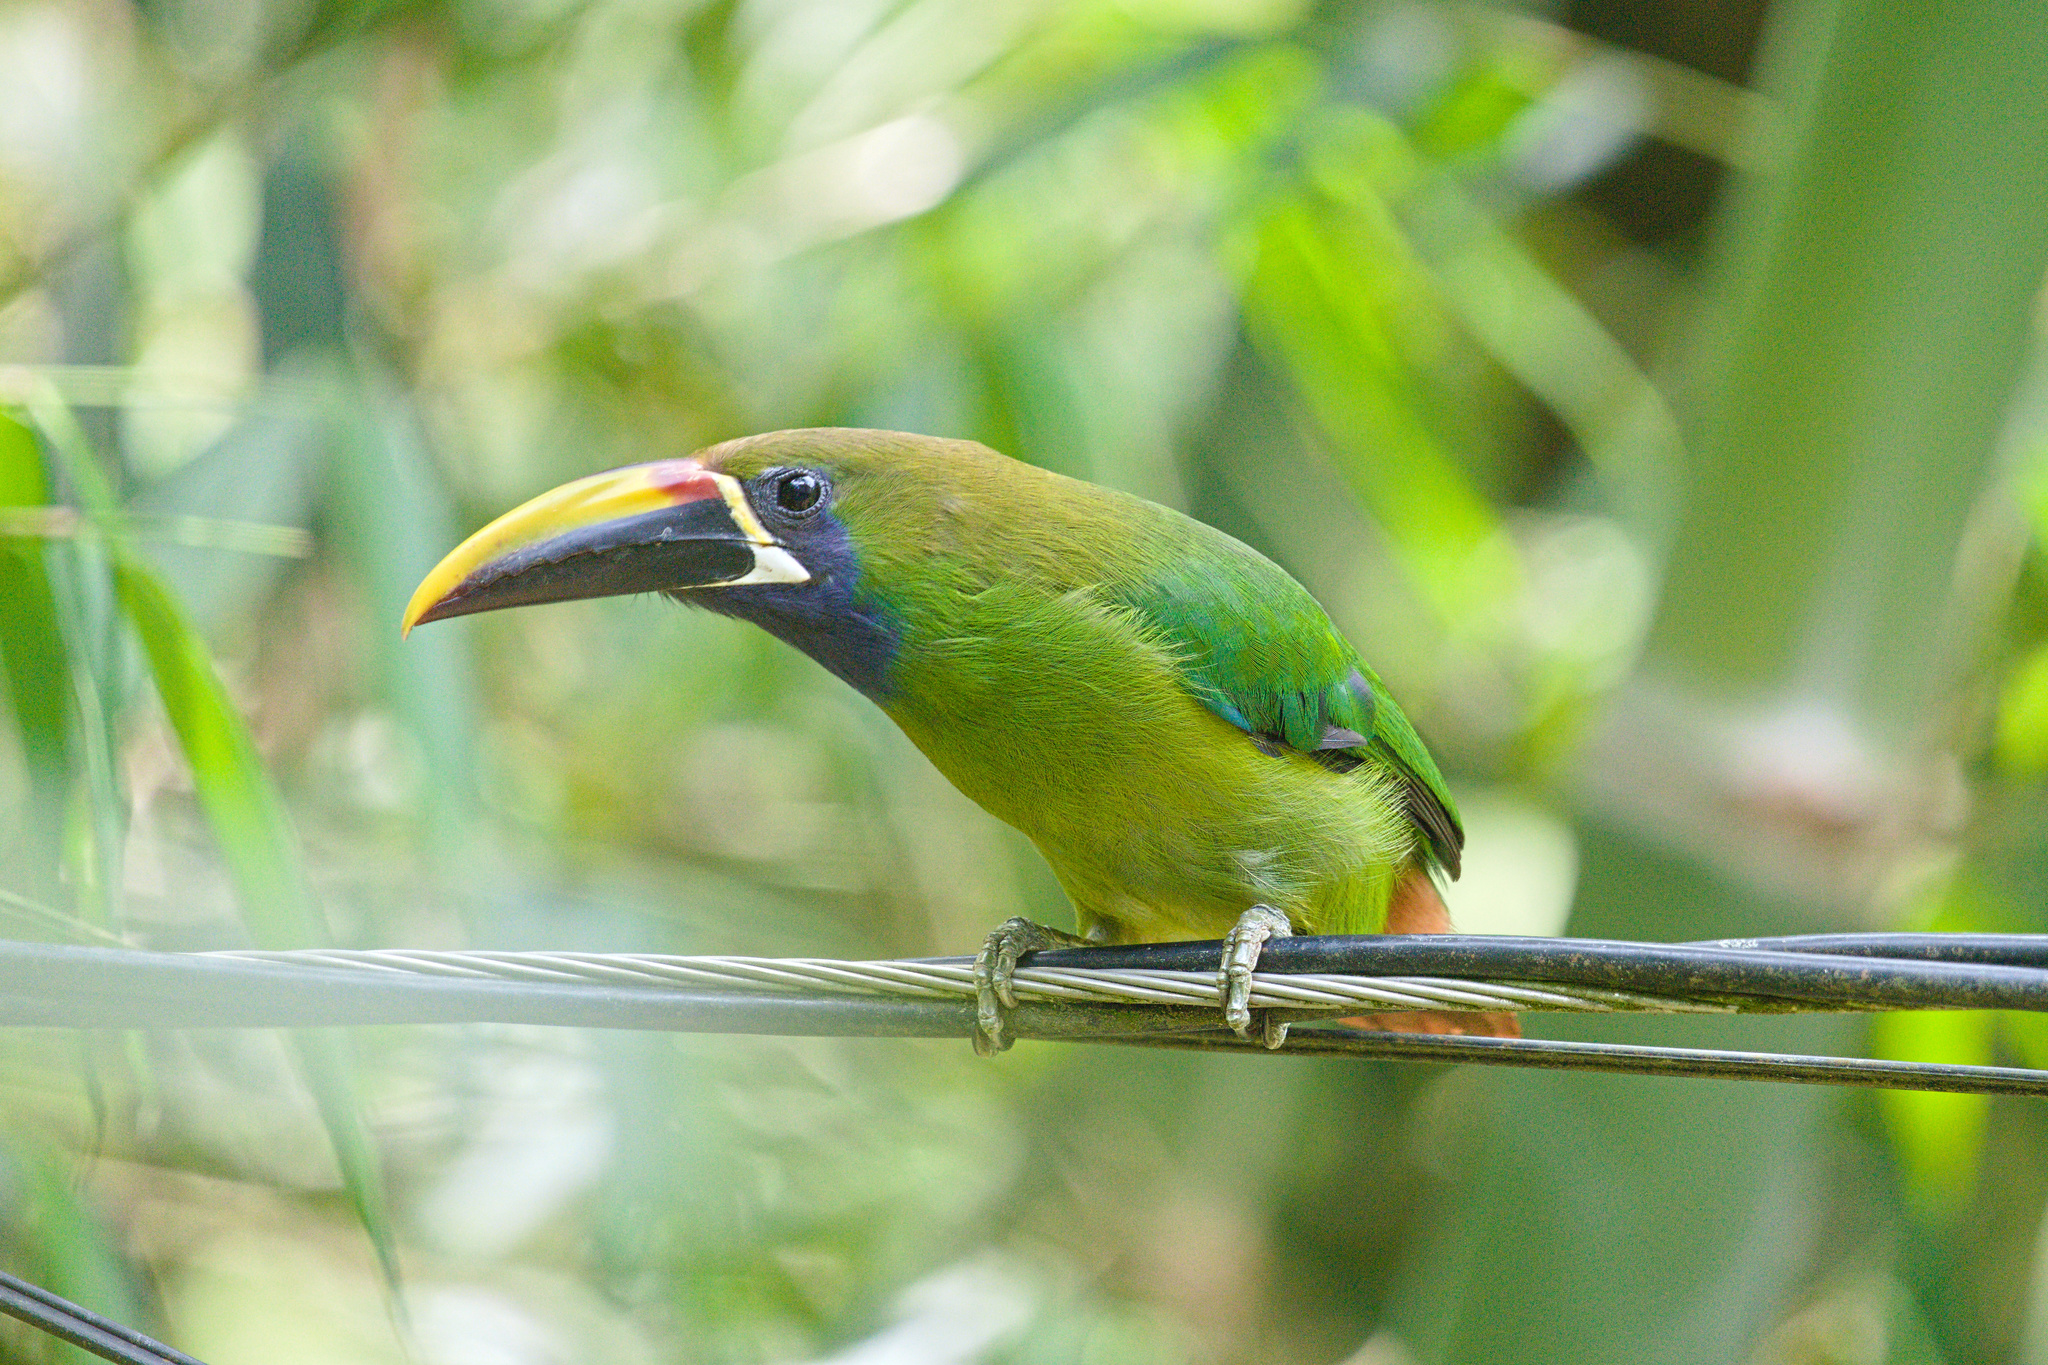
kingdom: Animalia
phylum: Chordata
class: Aves
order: Piciformes
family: Ramphastidae
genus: Aulacorhynchus
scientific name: Aulacorhynchus prasinus
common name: Emerald toucanet
